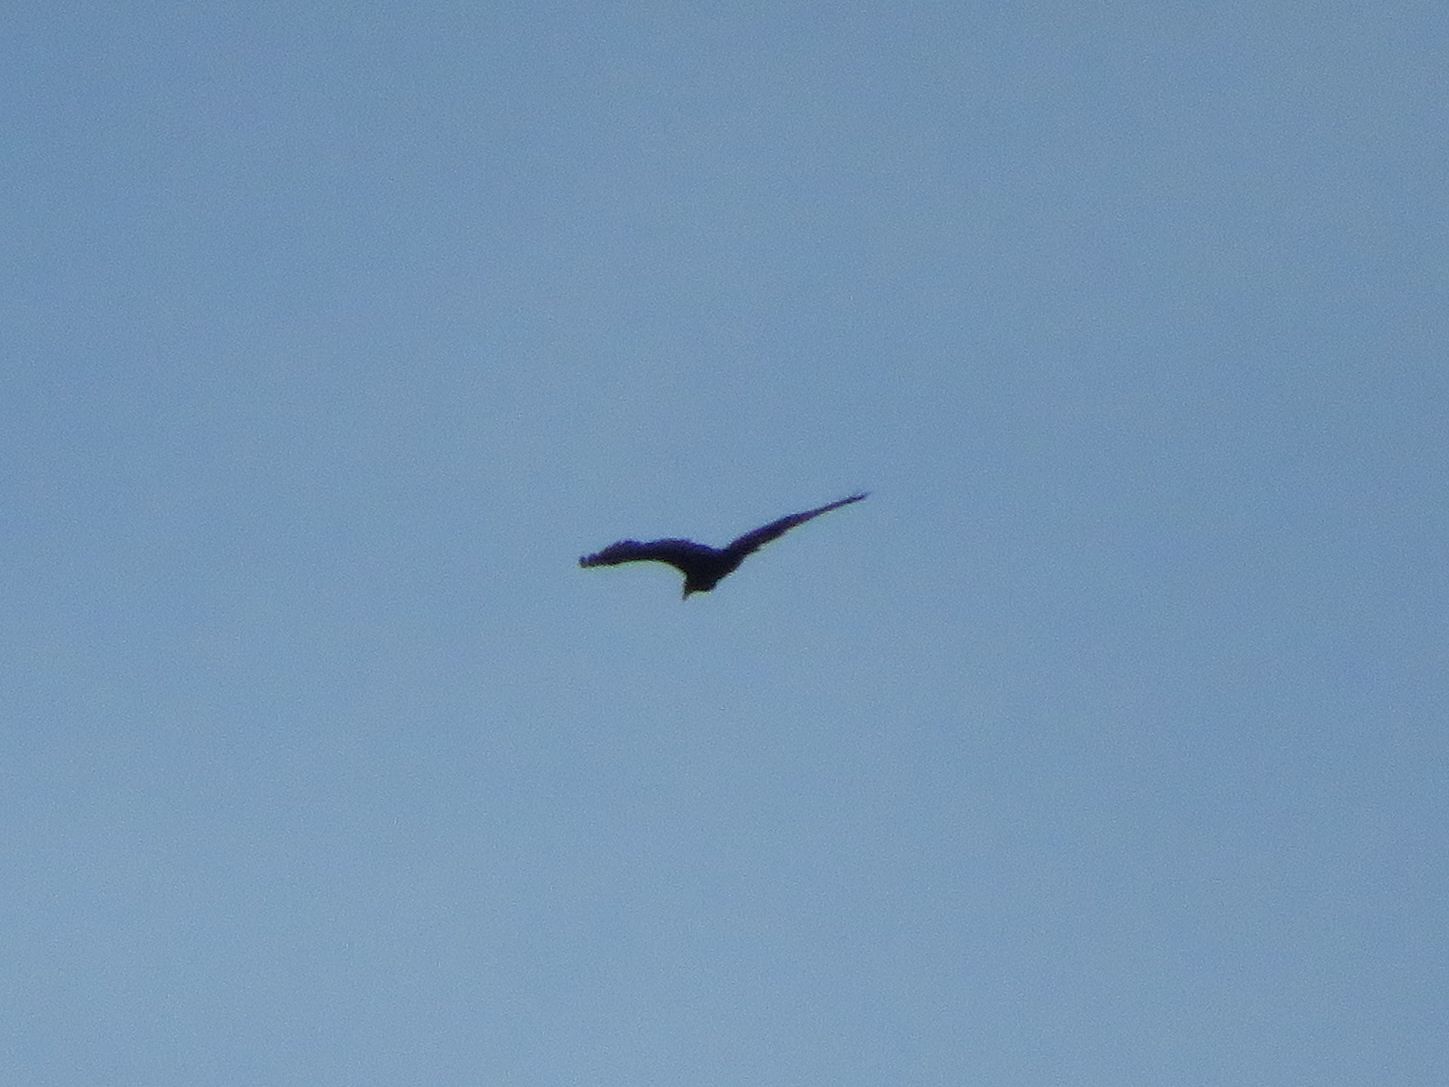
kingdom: Animalia
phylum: Chordata
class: Aves
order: Accipitriformes
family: Cathartidae
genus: Cathartes
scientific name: Cathartes aura
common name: Turkey vulture
